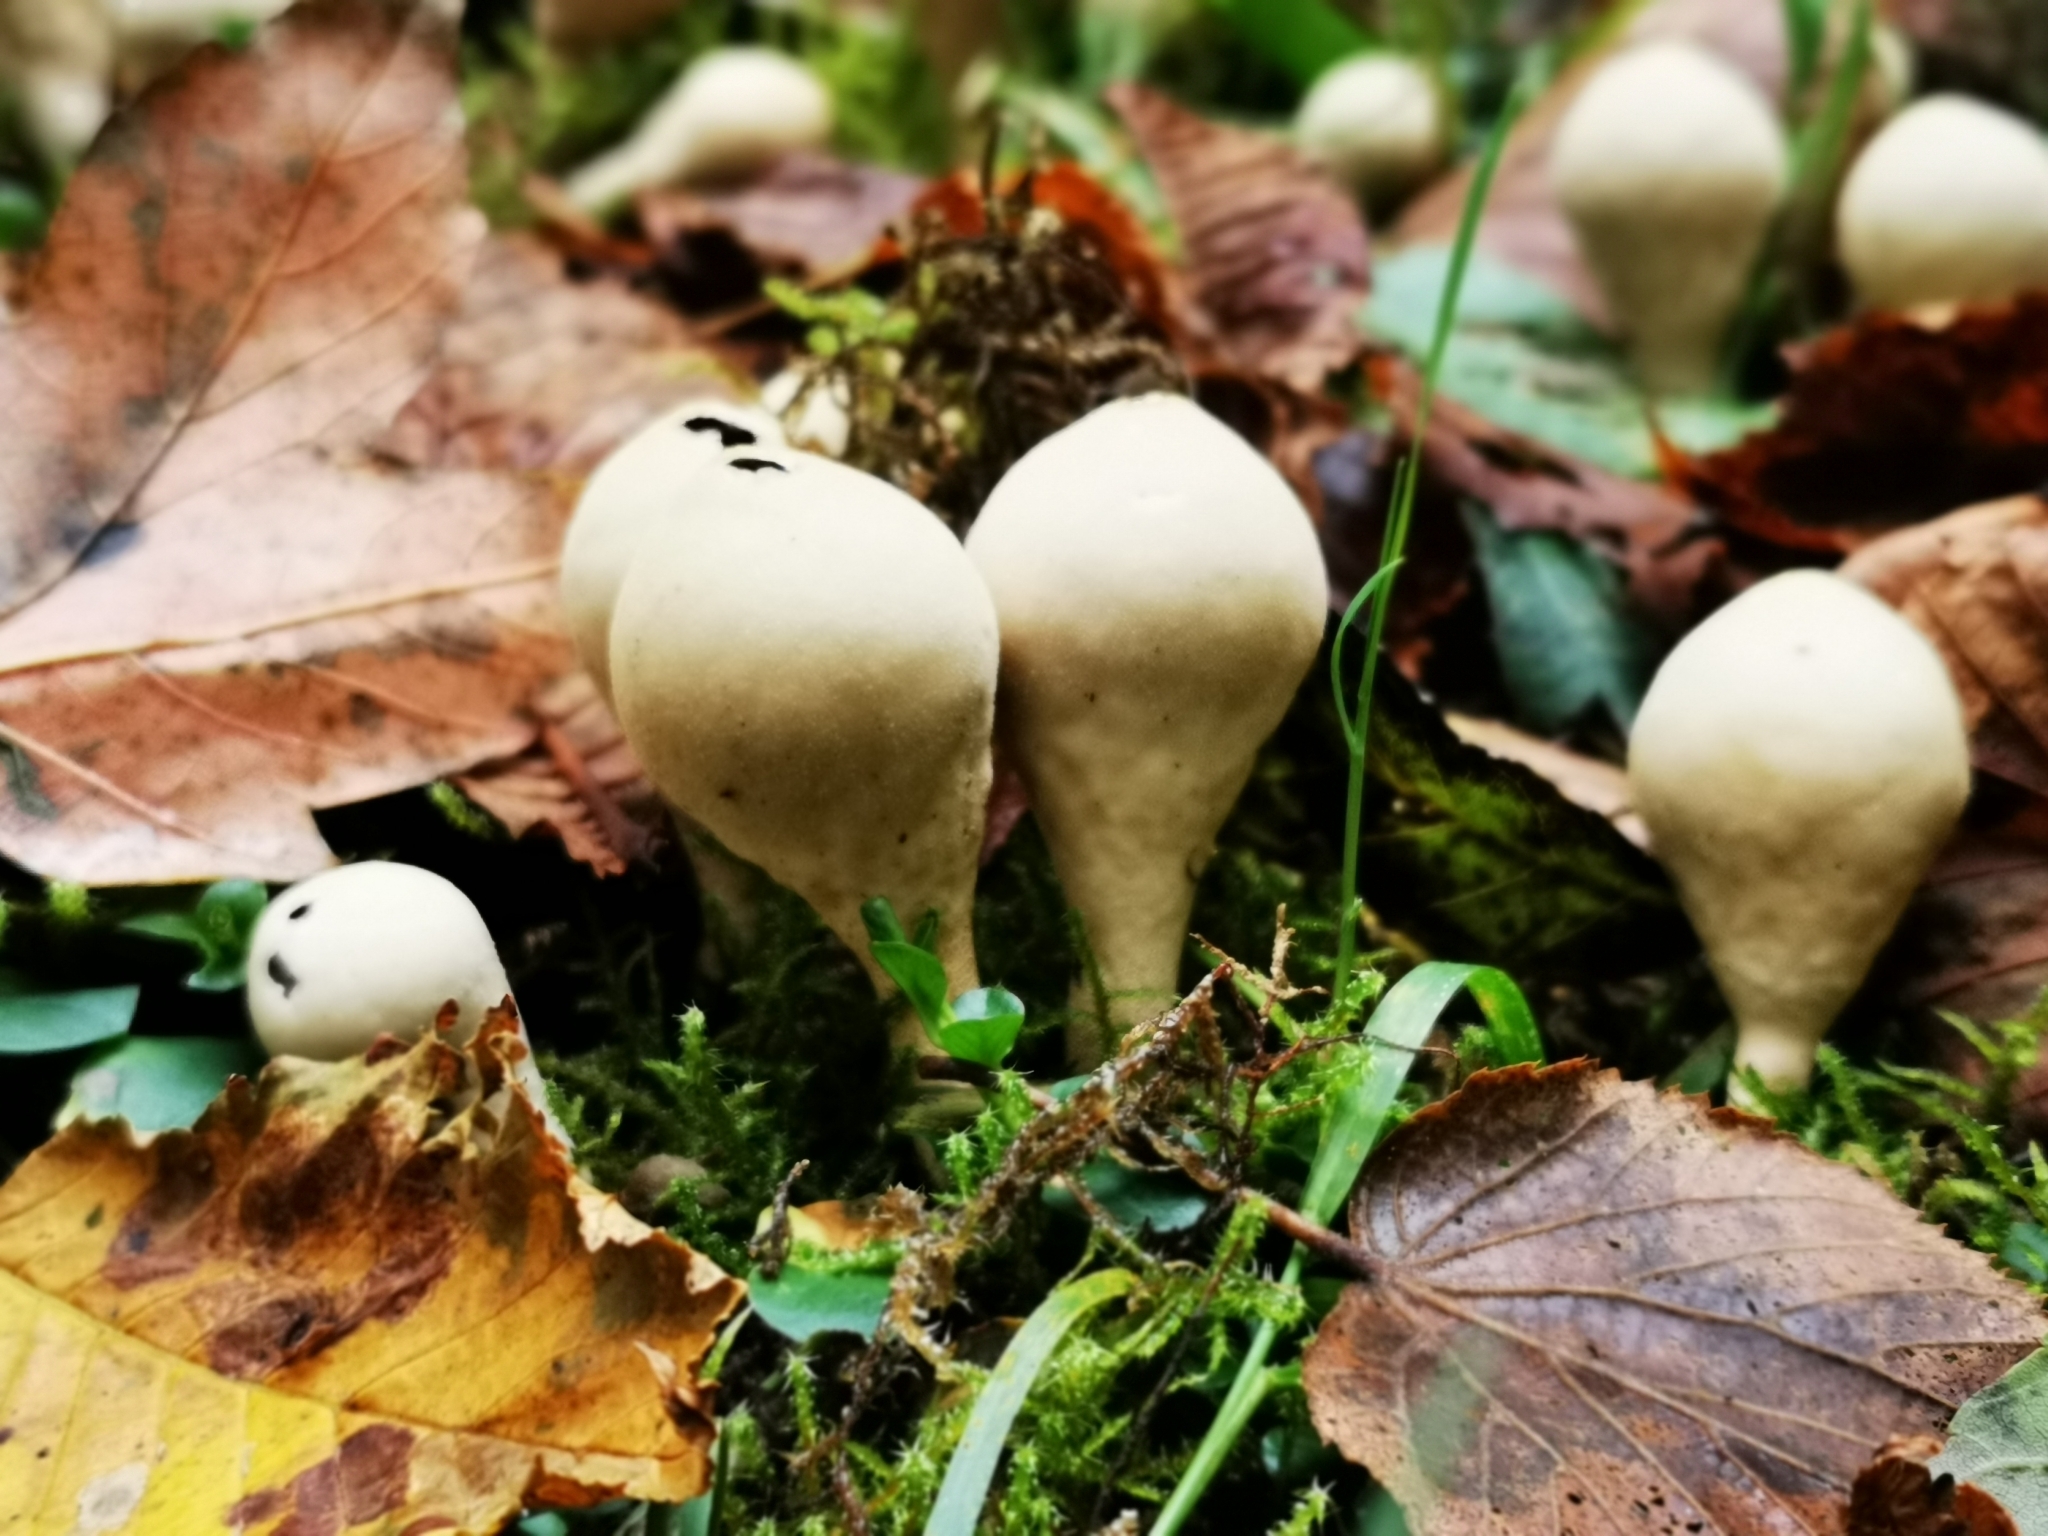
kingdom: Fungi
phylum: Basidiomycota
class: Agaricomycetes
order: Agaricales
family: Lycoperdaceae
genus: Apioperdon
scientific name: Apioperdon pyriforme
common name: Pear-shaped puffball
